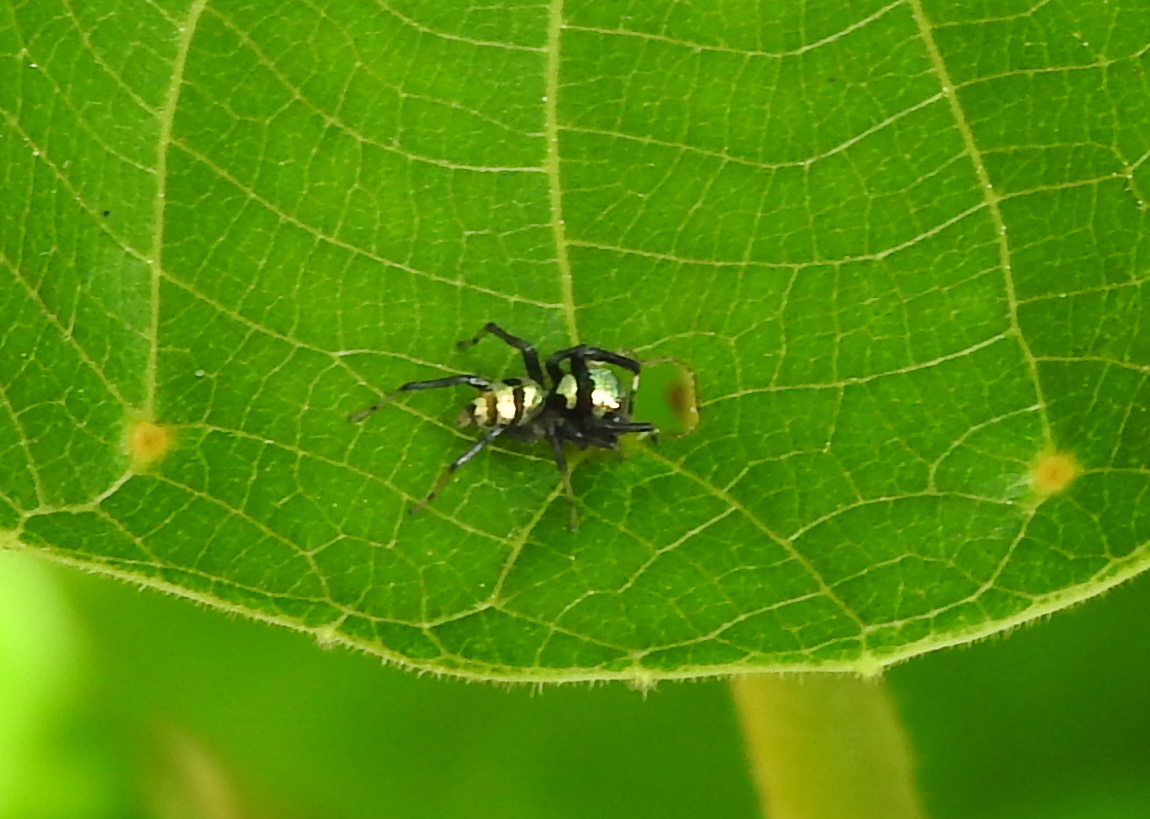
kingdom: Animalia
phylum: Arthropoda
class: Arachnida
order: Araneae
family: Salticidae
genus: Phintella
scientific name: Phintella vittata
